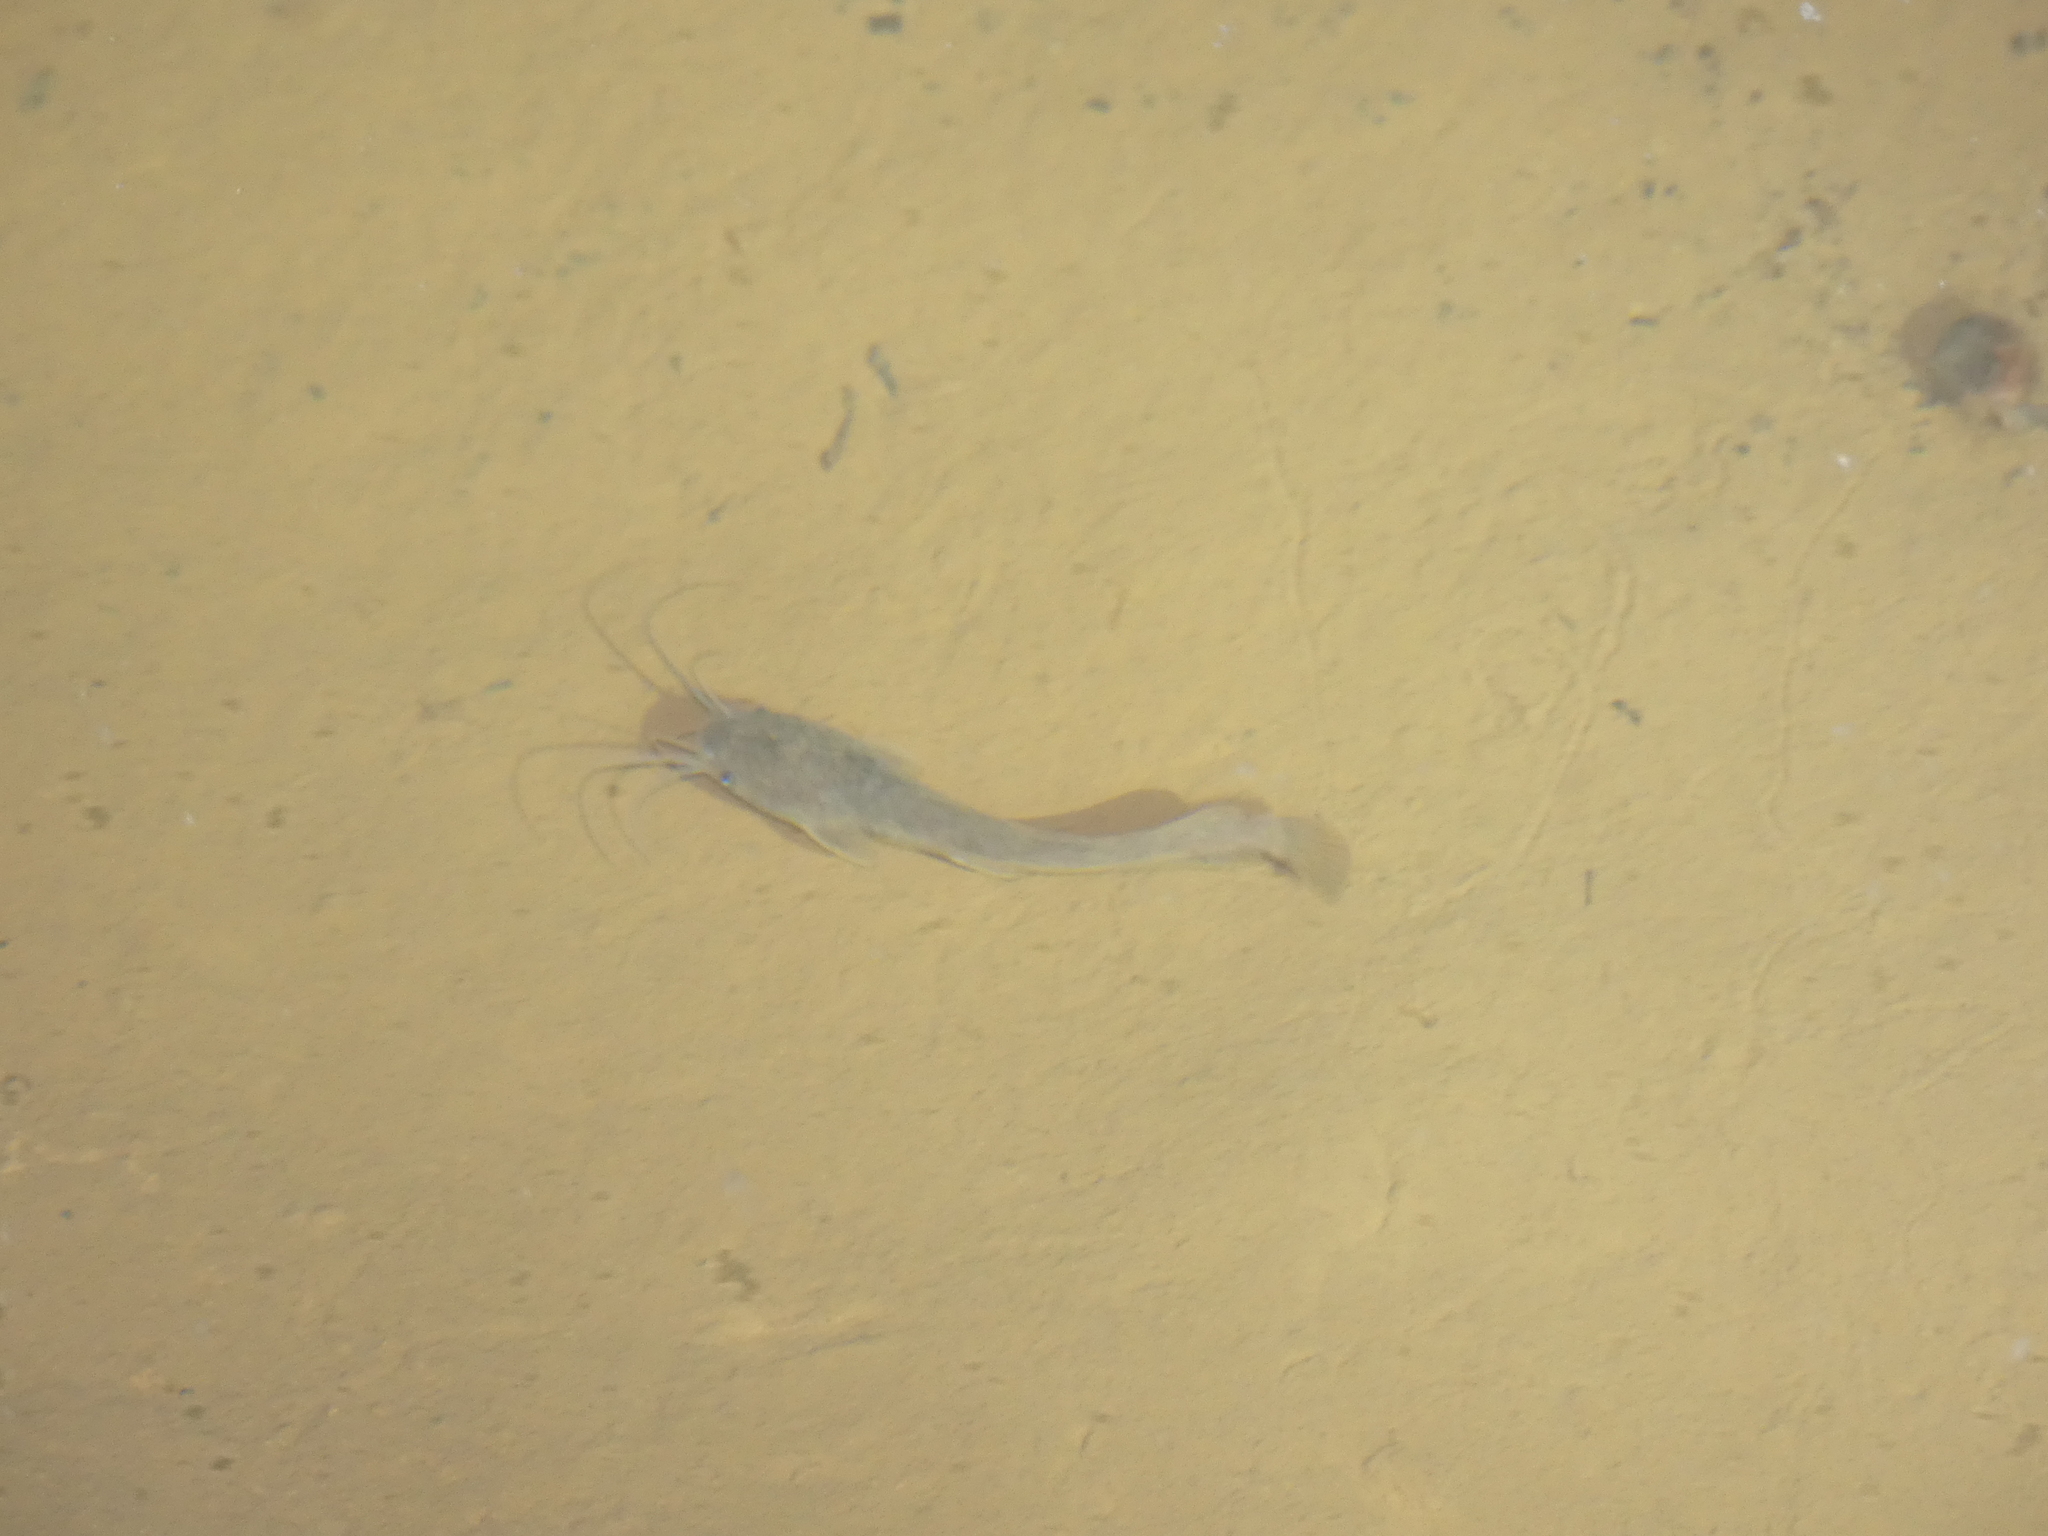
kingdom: Animalia
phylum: Chordata
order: Siluriformes
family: Clariidae
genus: Clarias
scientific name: Clarias gariepinus
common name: African catfish
